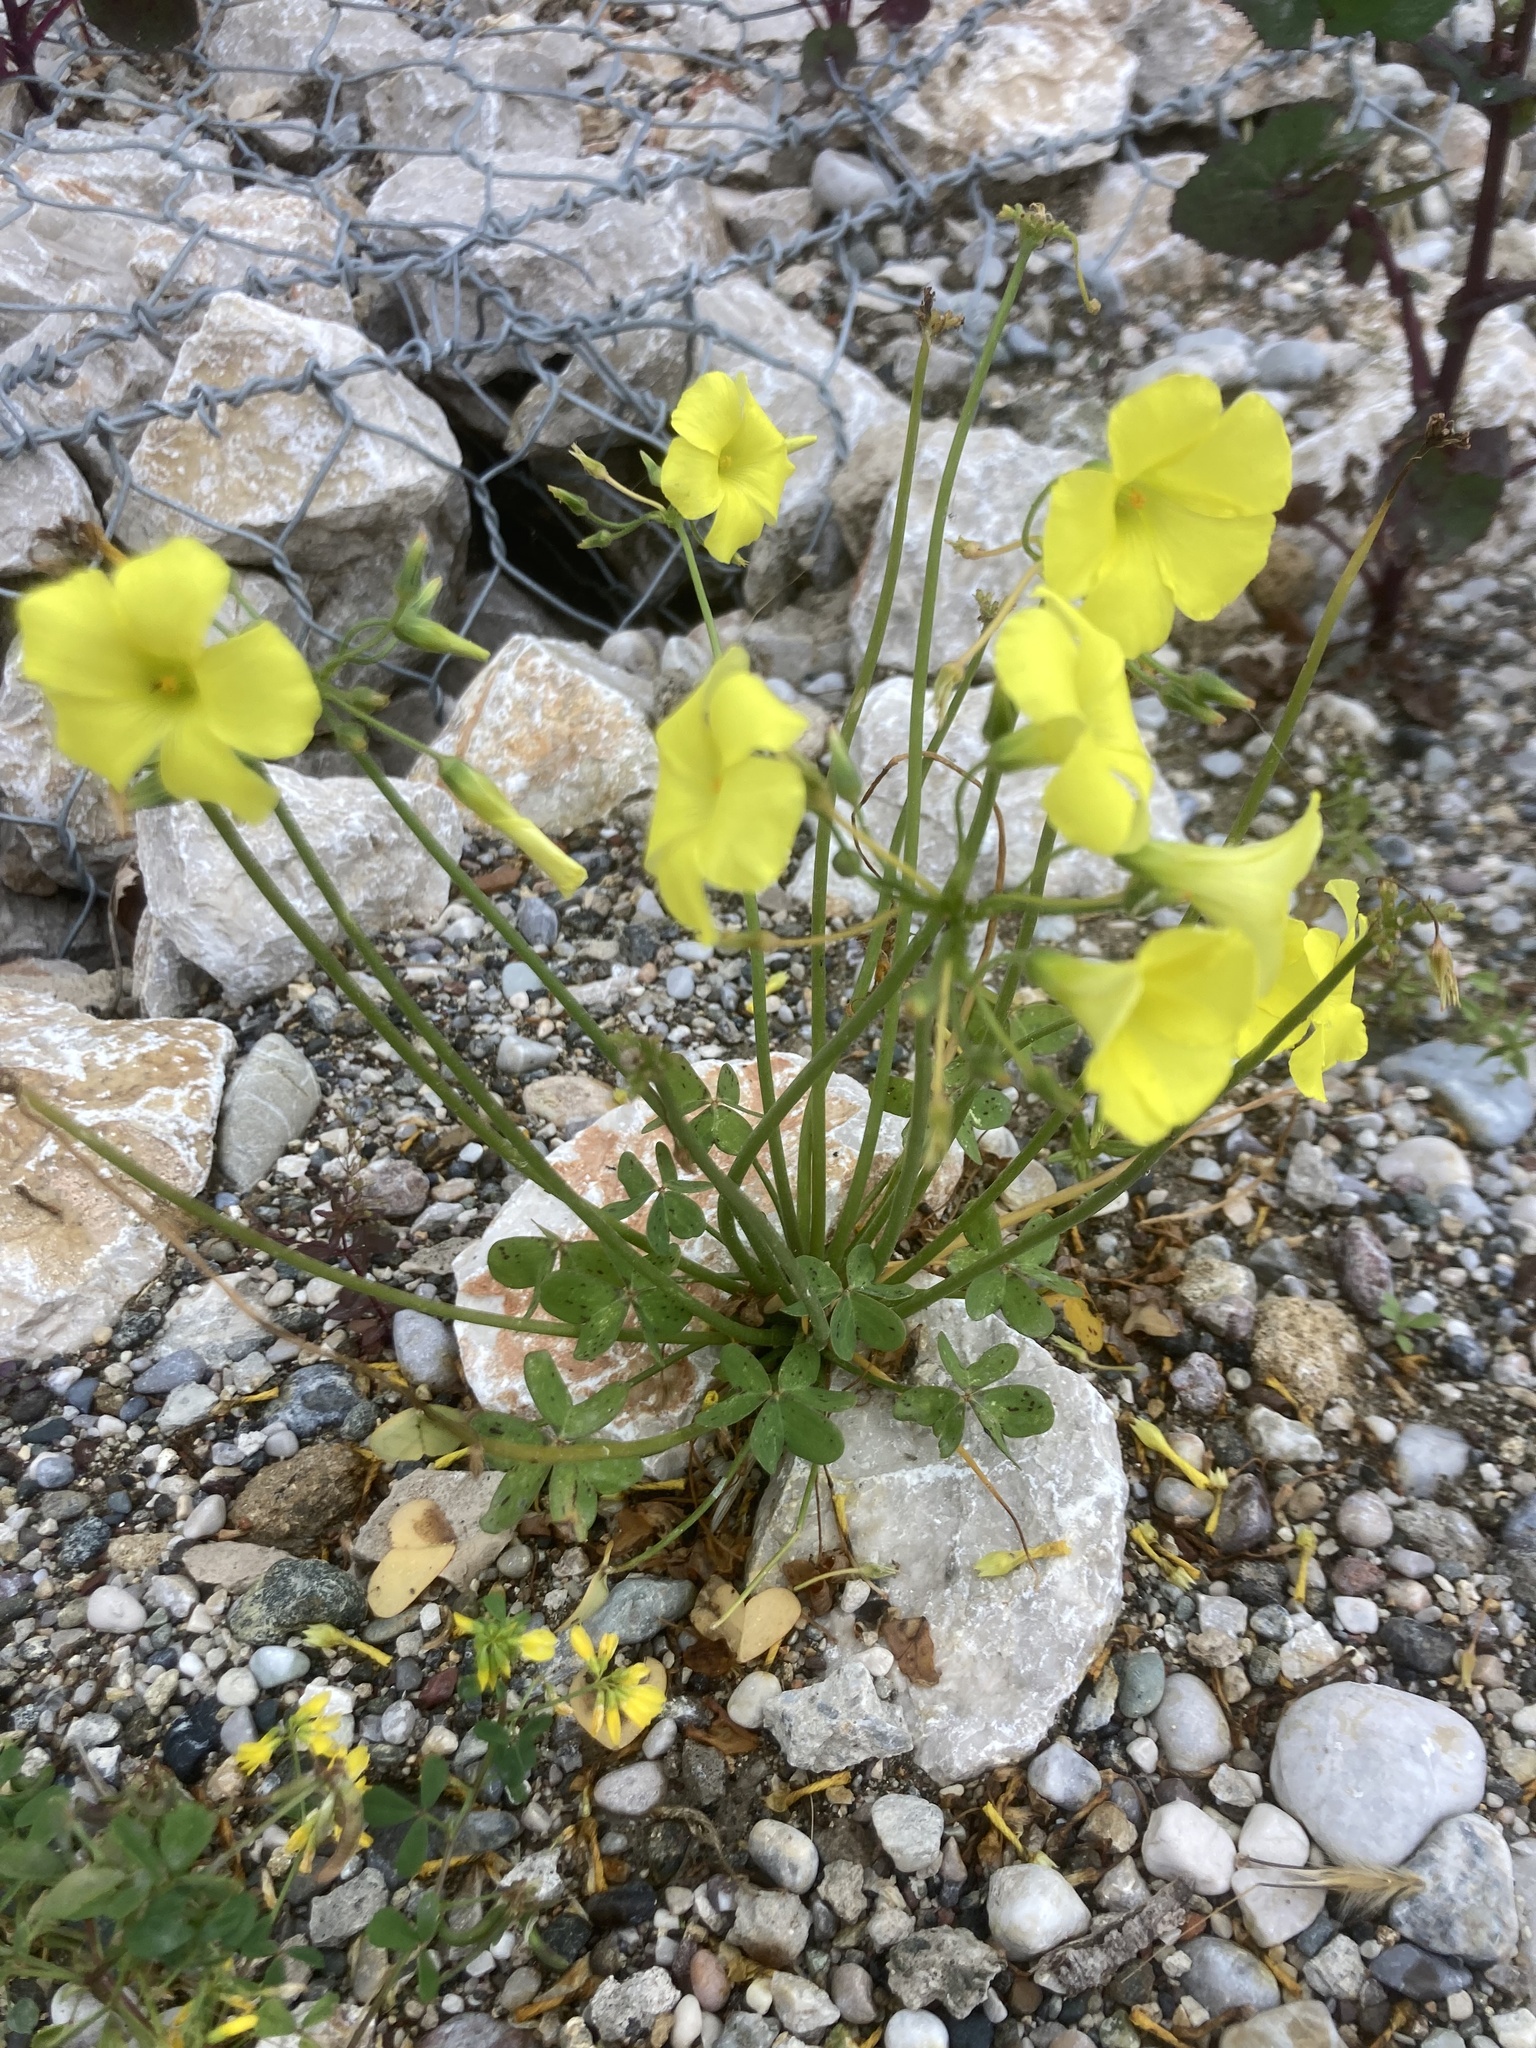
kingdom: Plantae
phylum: Tracheophyta
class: Magnoliopsida
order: Oxalidales
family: Oxalidaceae
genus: Oxalis
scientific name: Oxalis pes-caprae
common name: Bermuda-buttercup
